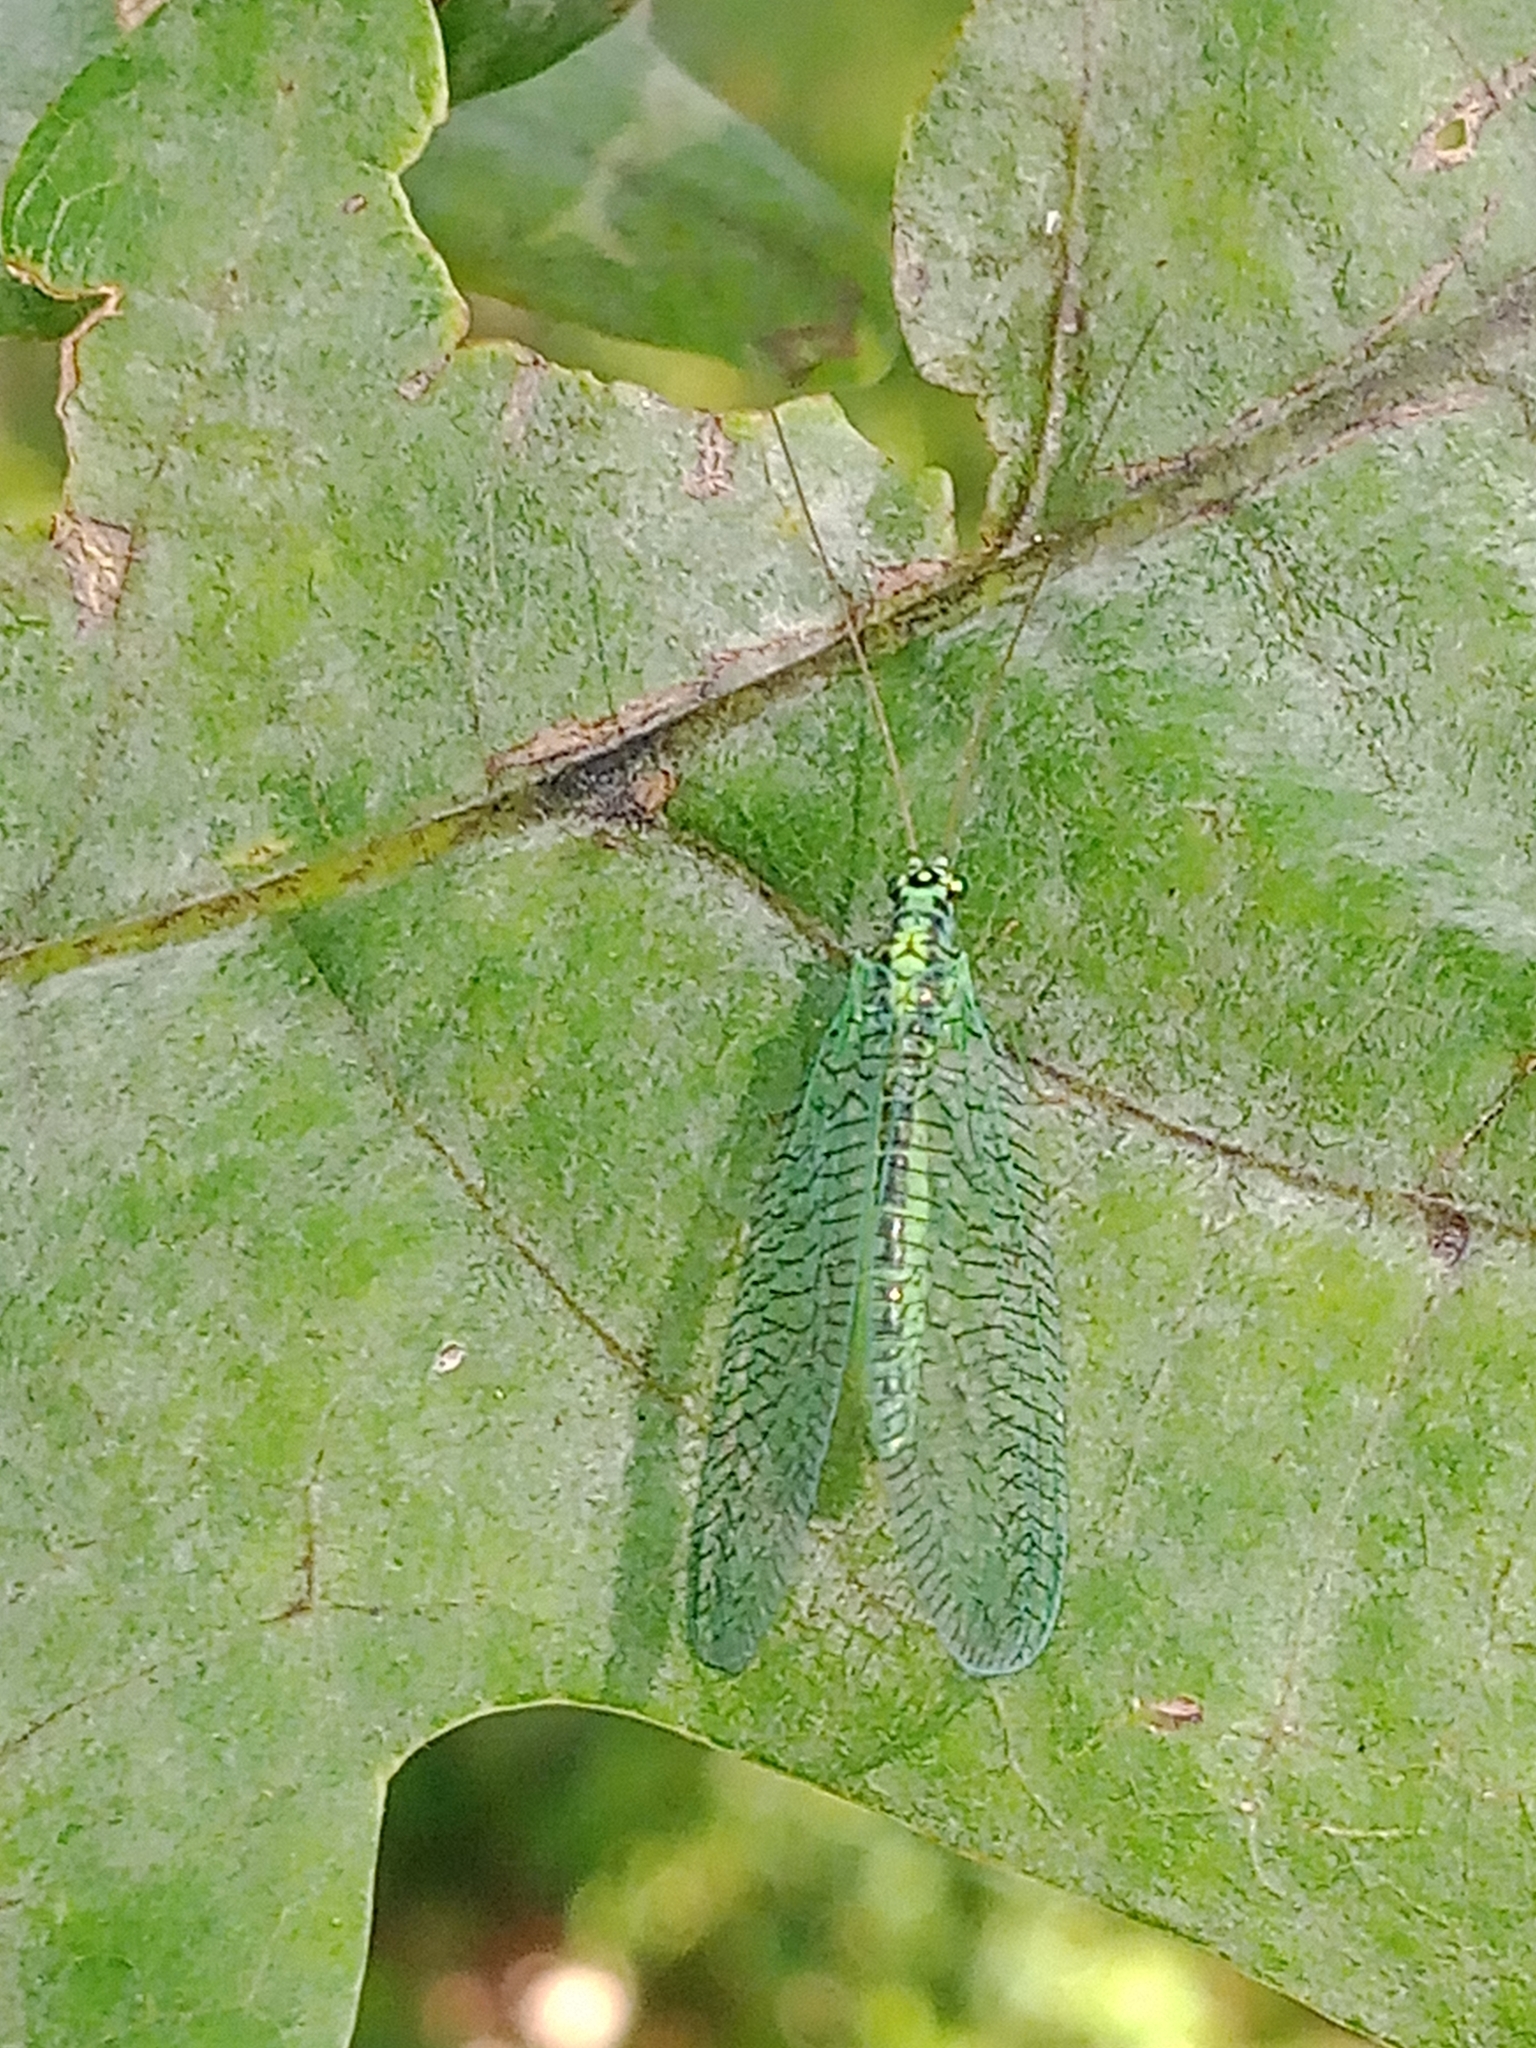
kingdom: Animalia
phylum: Arthropoda
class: Insecta
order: Neuroptera
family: Chrysopidae
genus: Chrysopa
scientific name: Chrysopa perla
